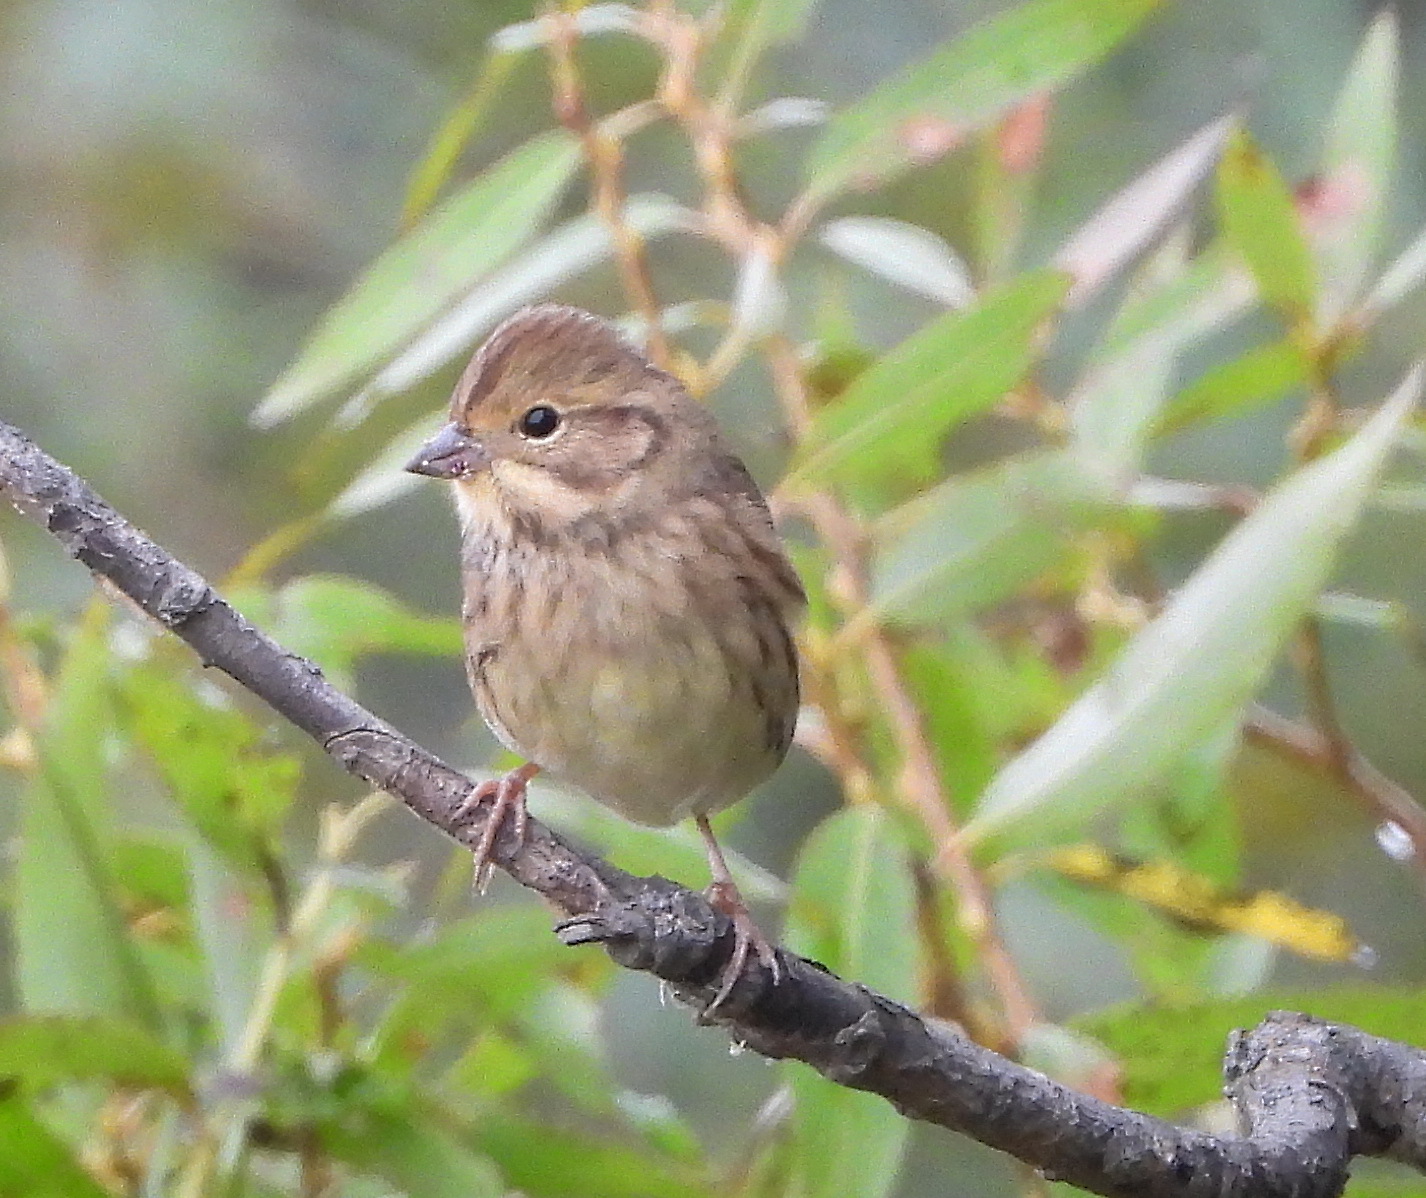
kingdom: Animalia
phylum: Chordata
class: Aves
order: Passeriformes
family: Emberizidae
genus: Emberiza
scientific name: Emberiza spodocephala
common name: Black-faced bunting
